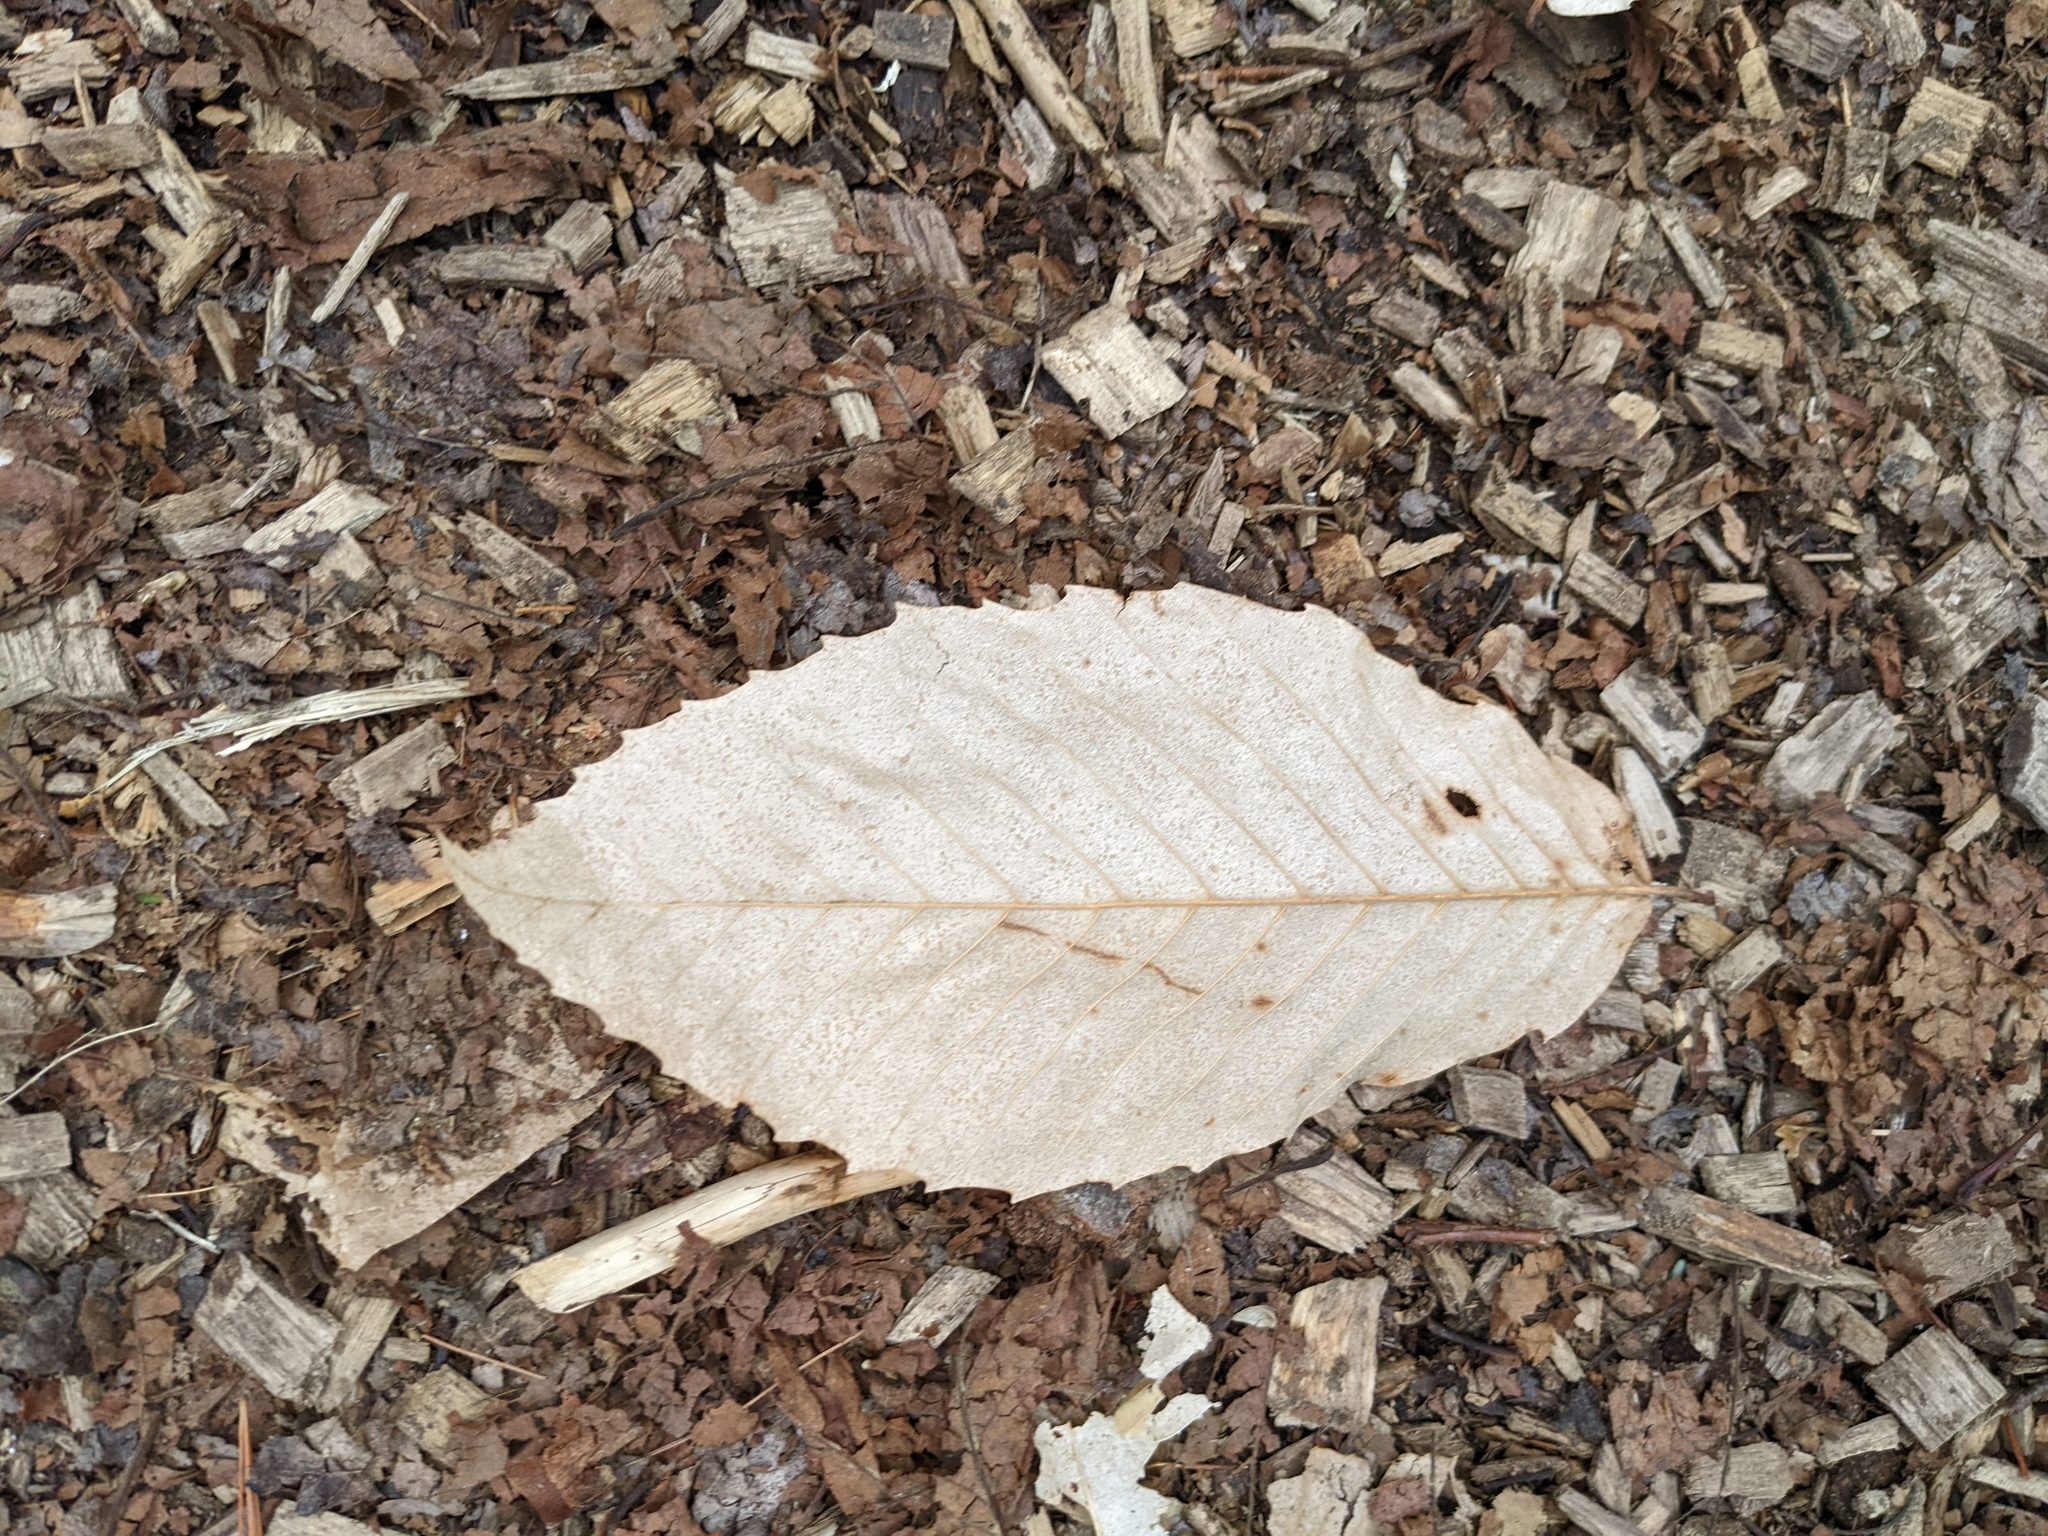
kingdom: Plantae
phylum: Tracheophyta
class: Magnoliopsida
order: Fagales
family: Fagaceae
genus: Fagus
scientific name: Fagus grandifolia
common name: American beech
